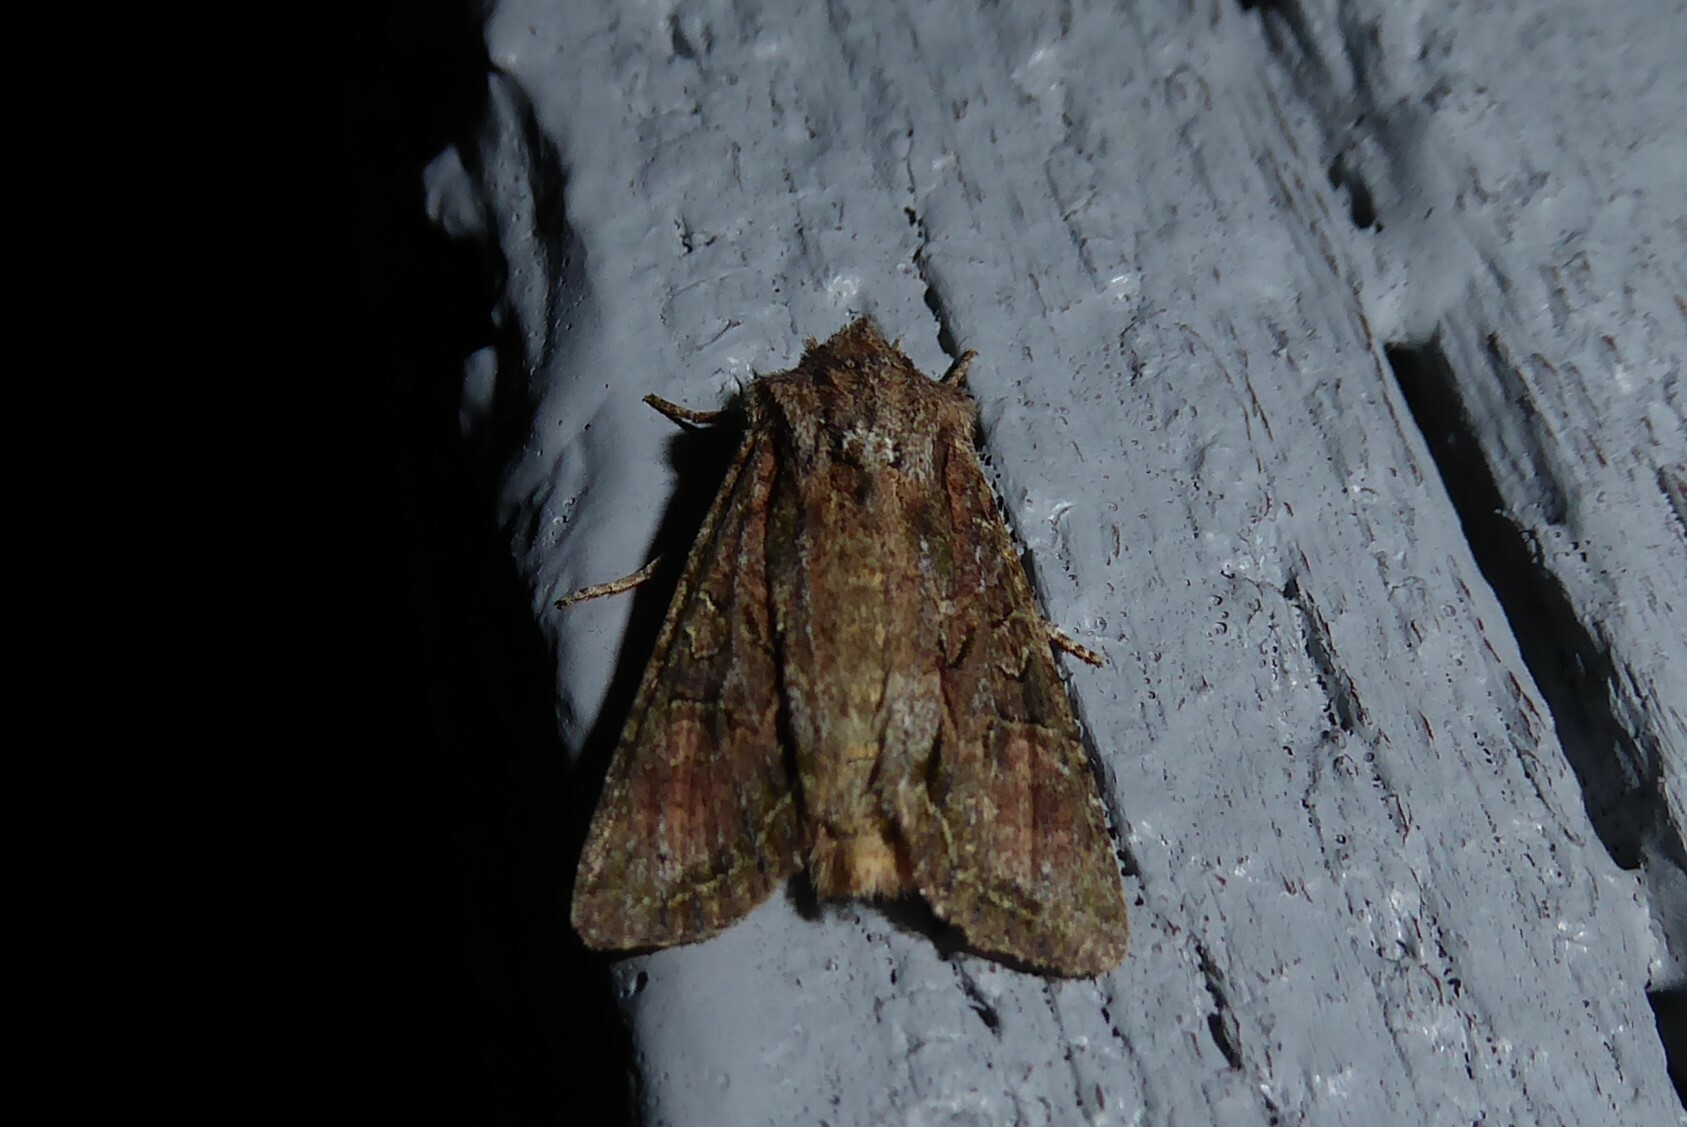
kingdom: Animalia
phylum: Arthropoda
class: Insecta
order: Lepidoptera
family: Noctuidae
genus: Ichneutica
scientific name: Ichneutica mutans
